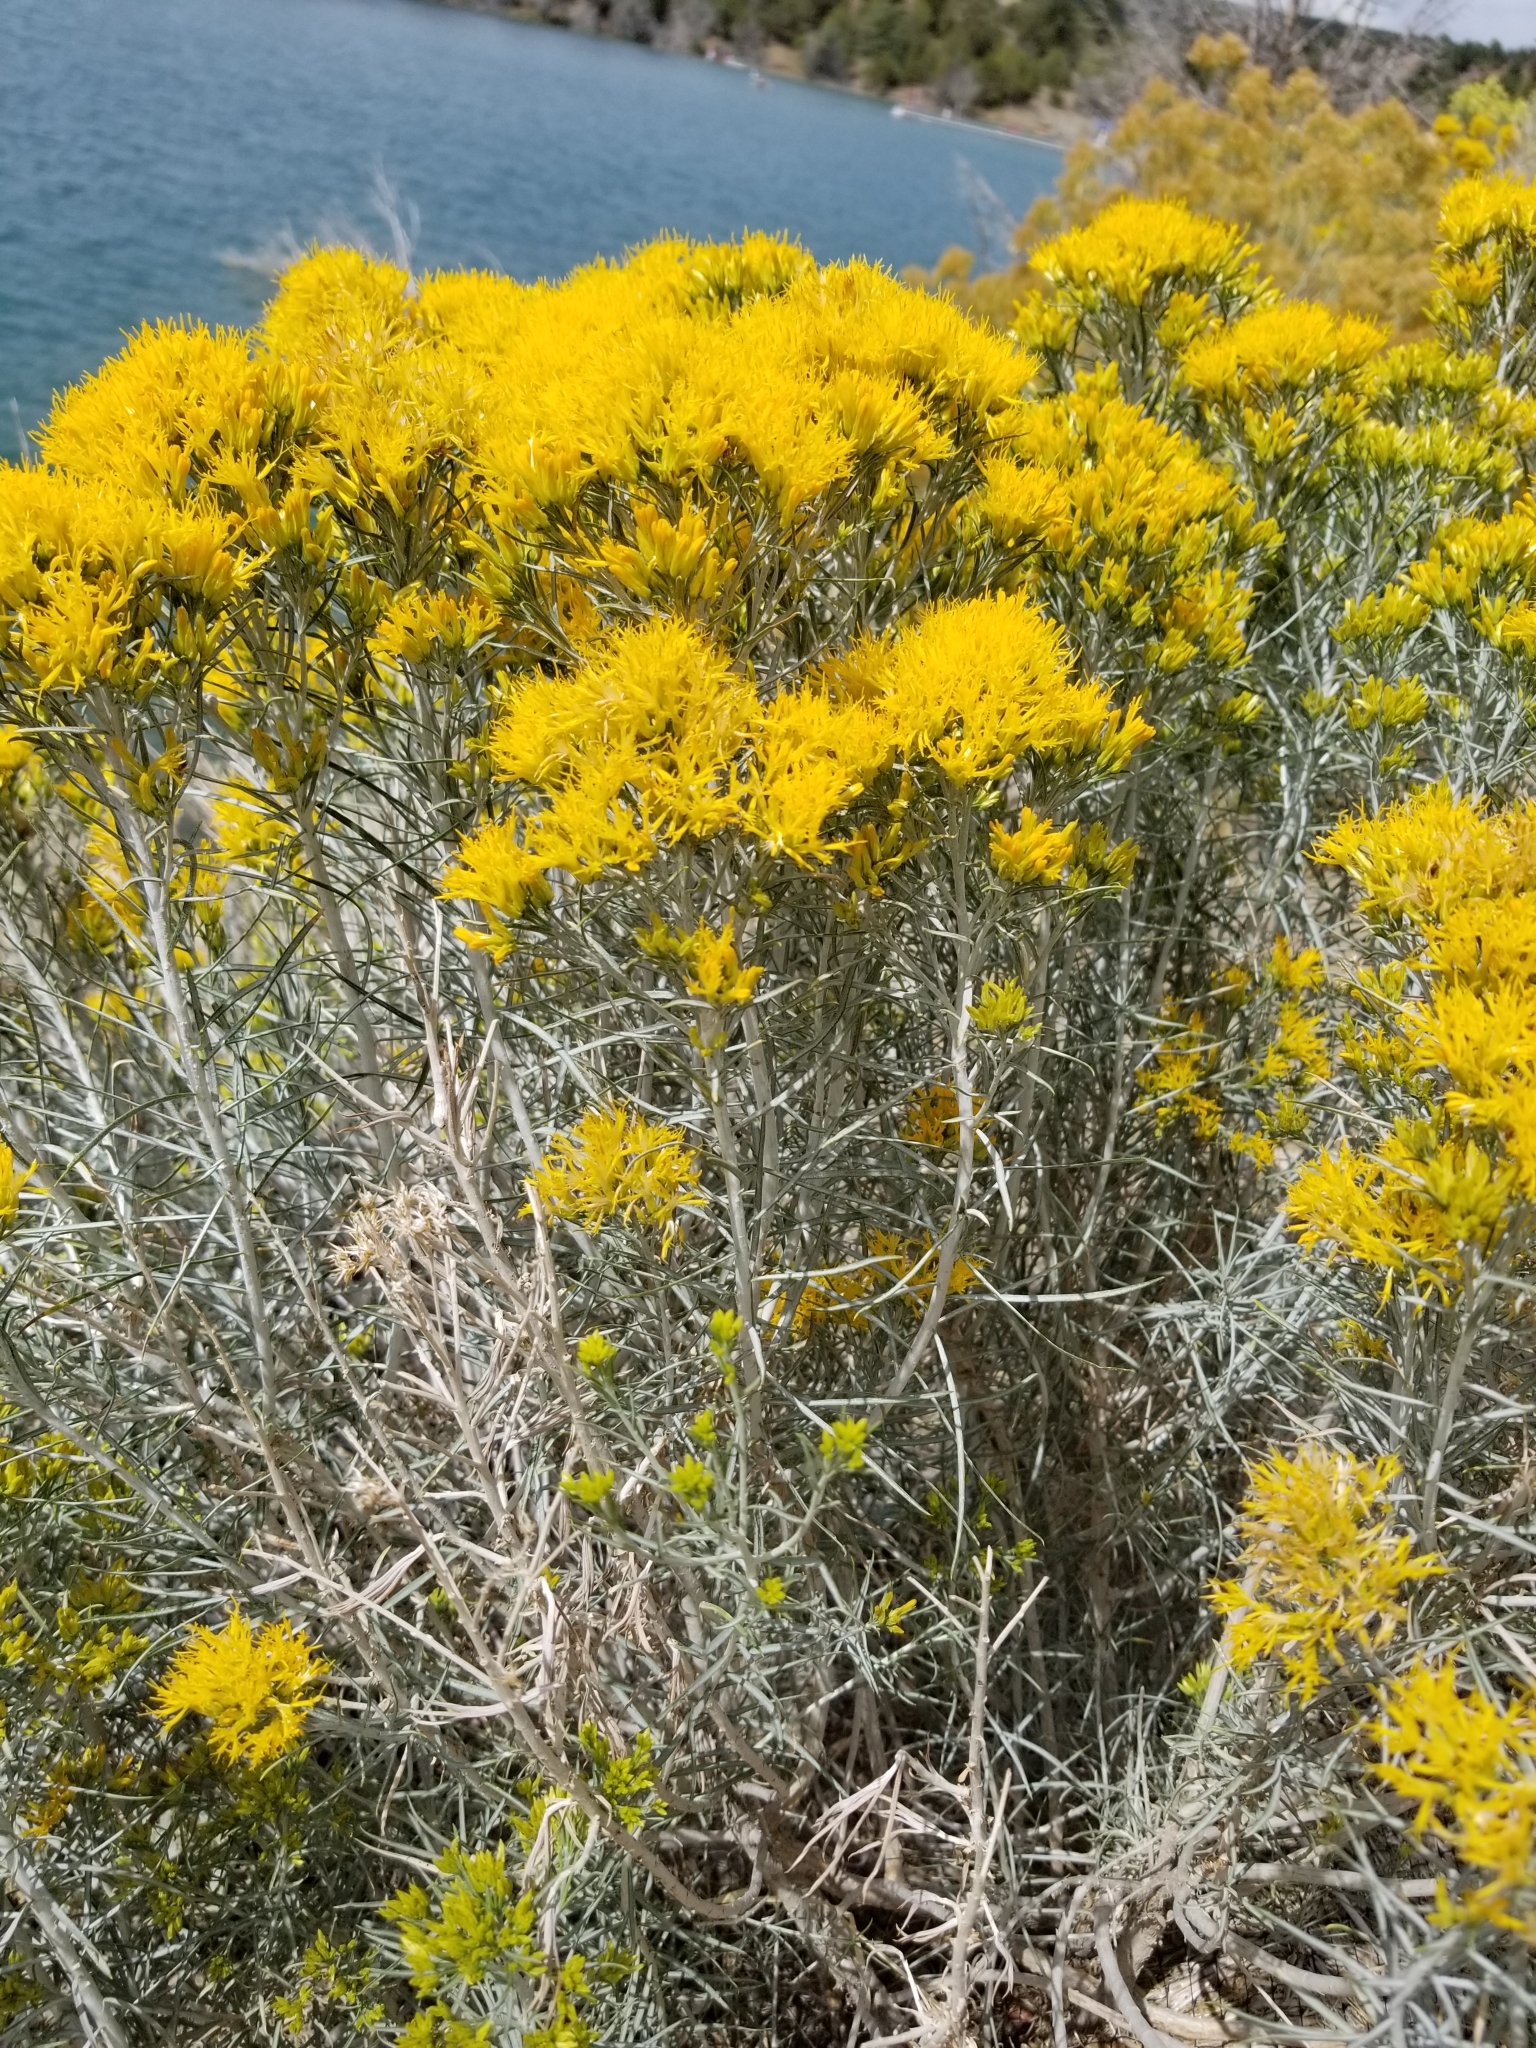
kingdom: Plantae
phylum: Tracheophyta
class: Magnoliopsida
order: Asterales
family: Asteraceae
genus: Ericameria
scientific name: Ericameria nauseosa
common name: Rubber rabbitbrush
